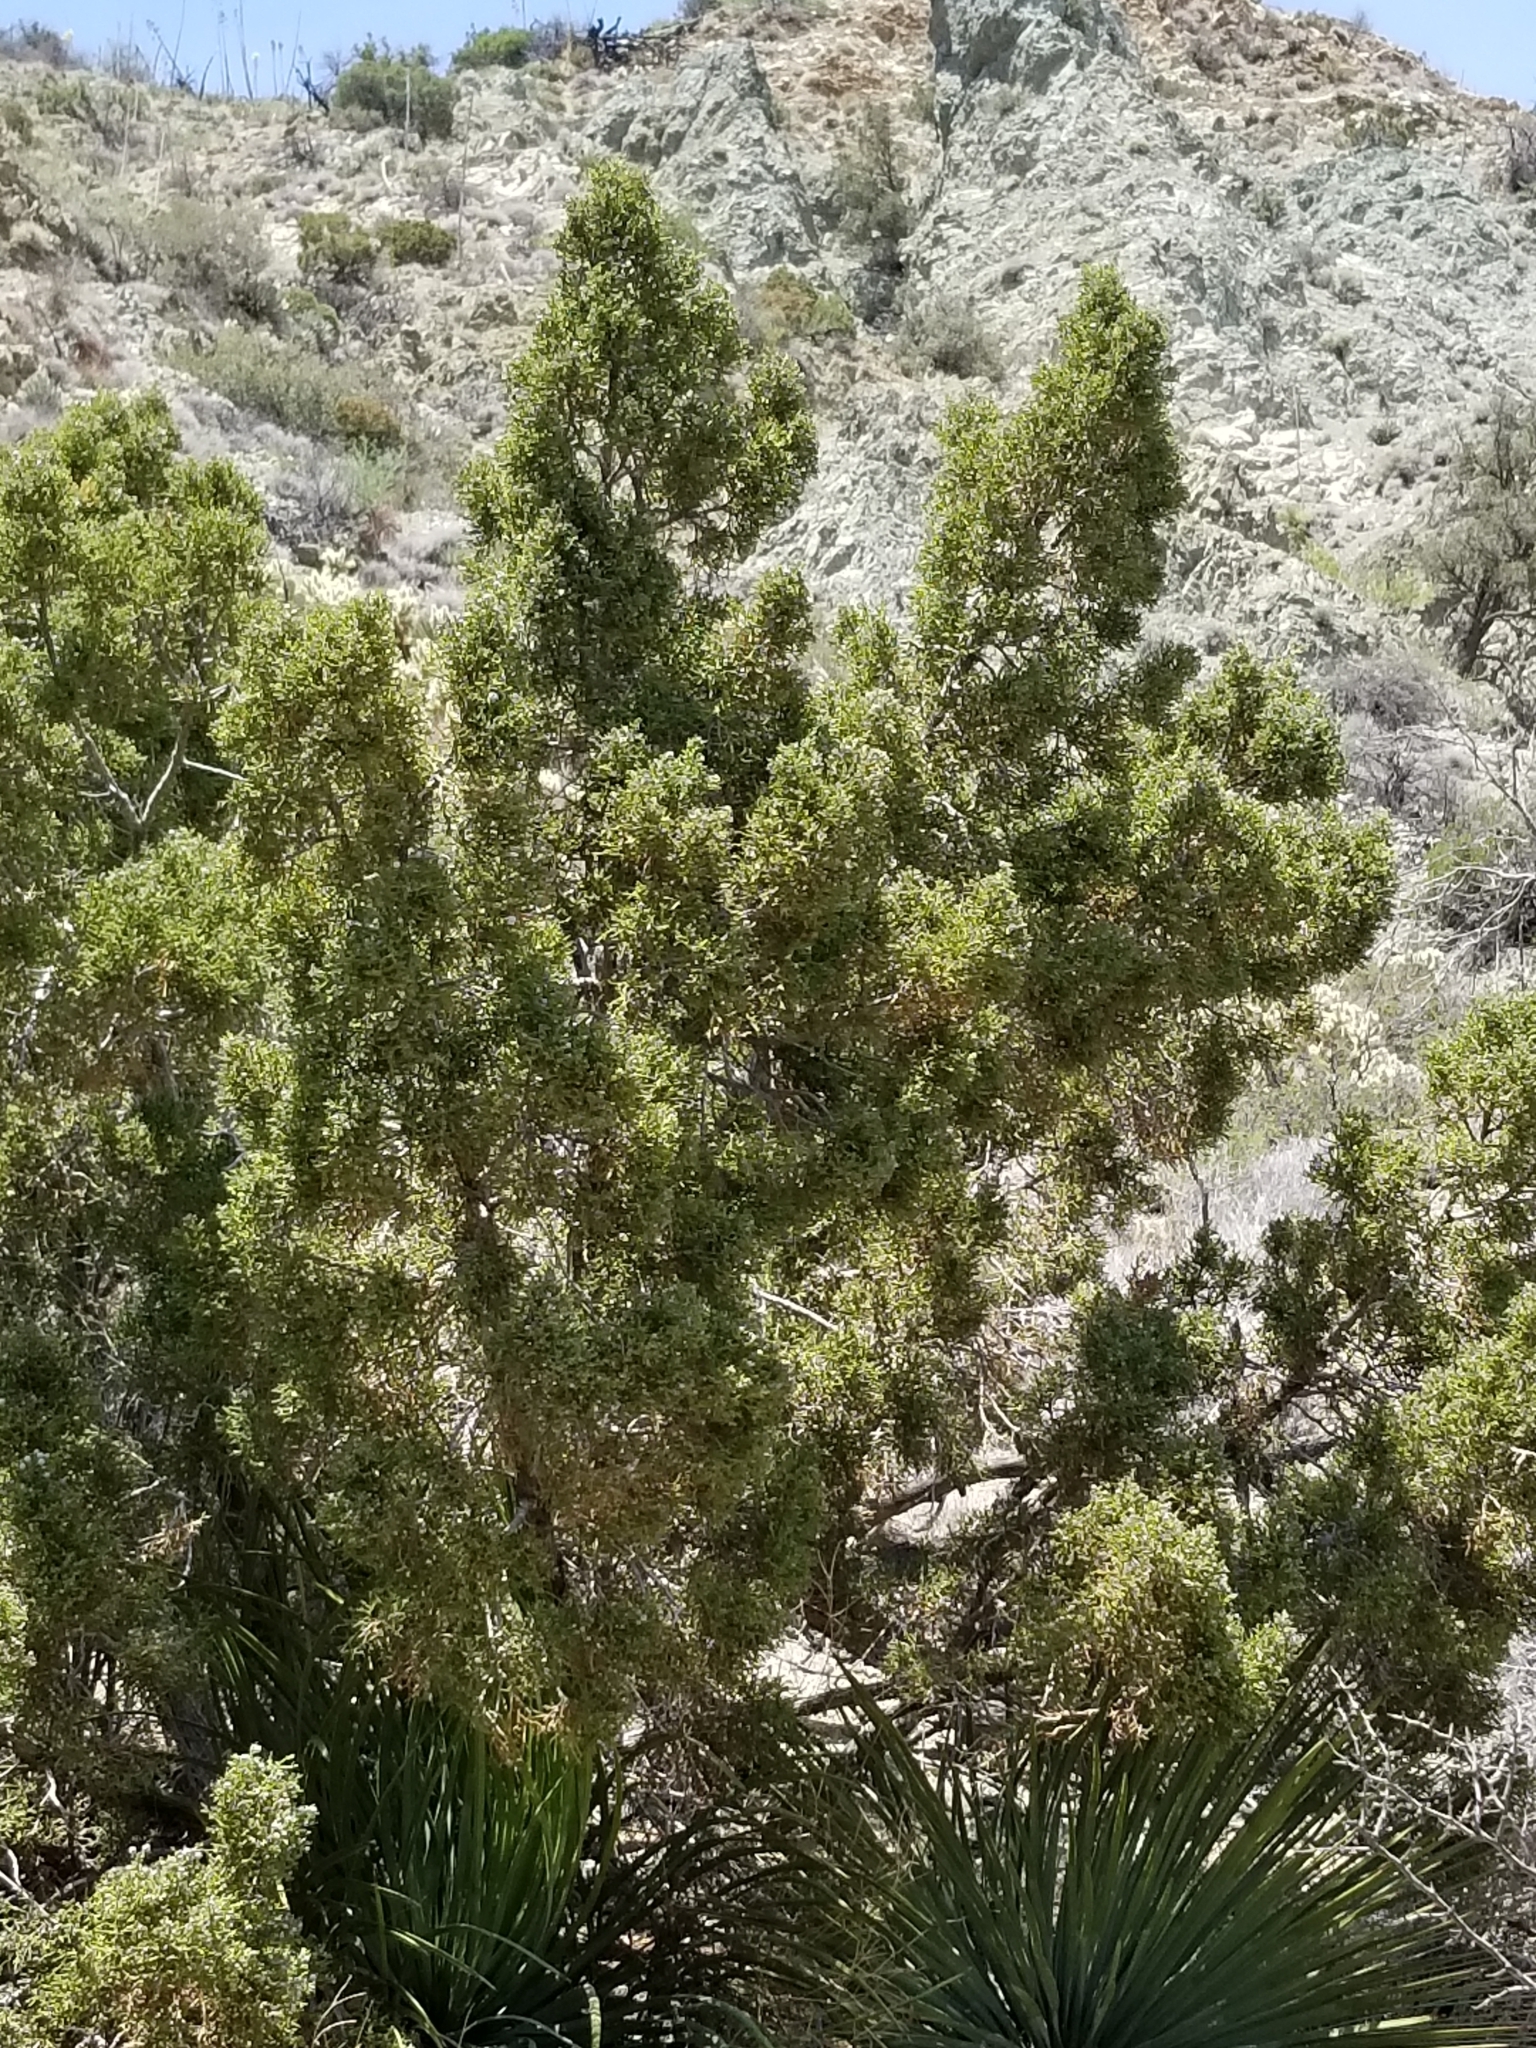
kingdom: Plantae
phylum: Tracheophyta
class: Pinopsida
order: Pinales
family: Cupressaceae
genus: Juniperus
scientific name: Juniperus californica
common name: California juniper
